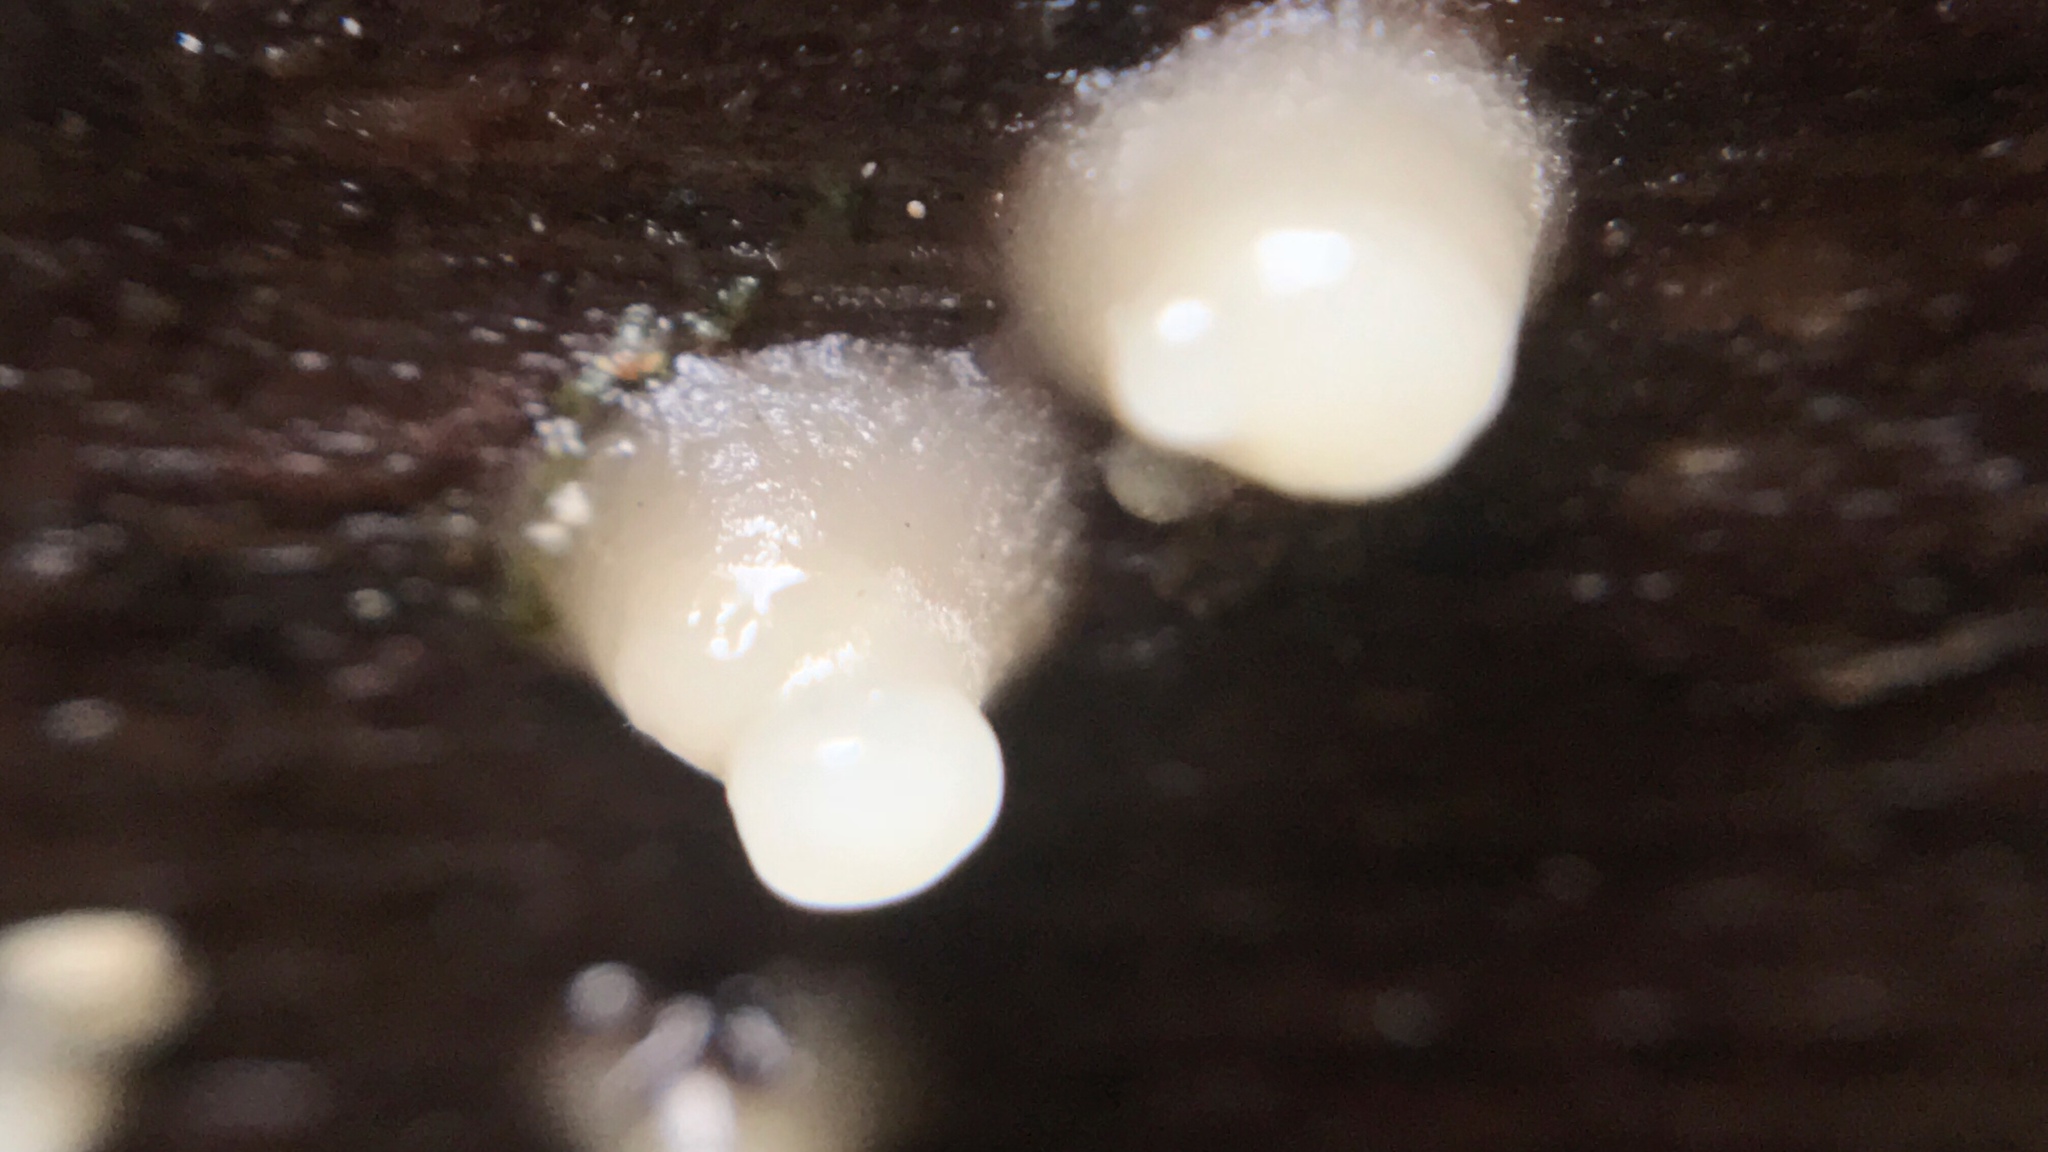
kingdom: Fungi
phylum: Basidiomycota
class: Atractiellomycetes
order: Atractiellales
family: Phleogenaceae
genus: Helicogloea
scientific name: Helicogloea compressa
